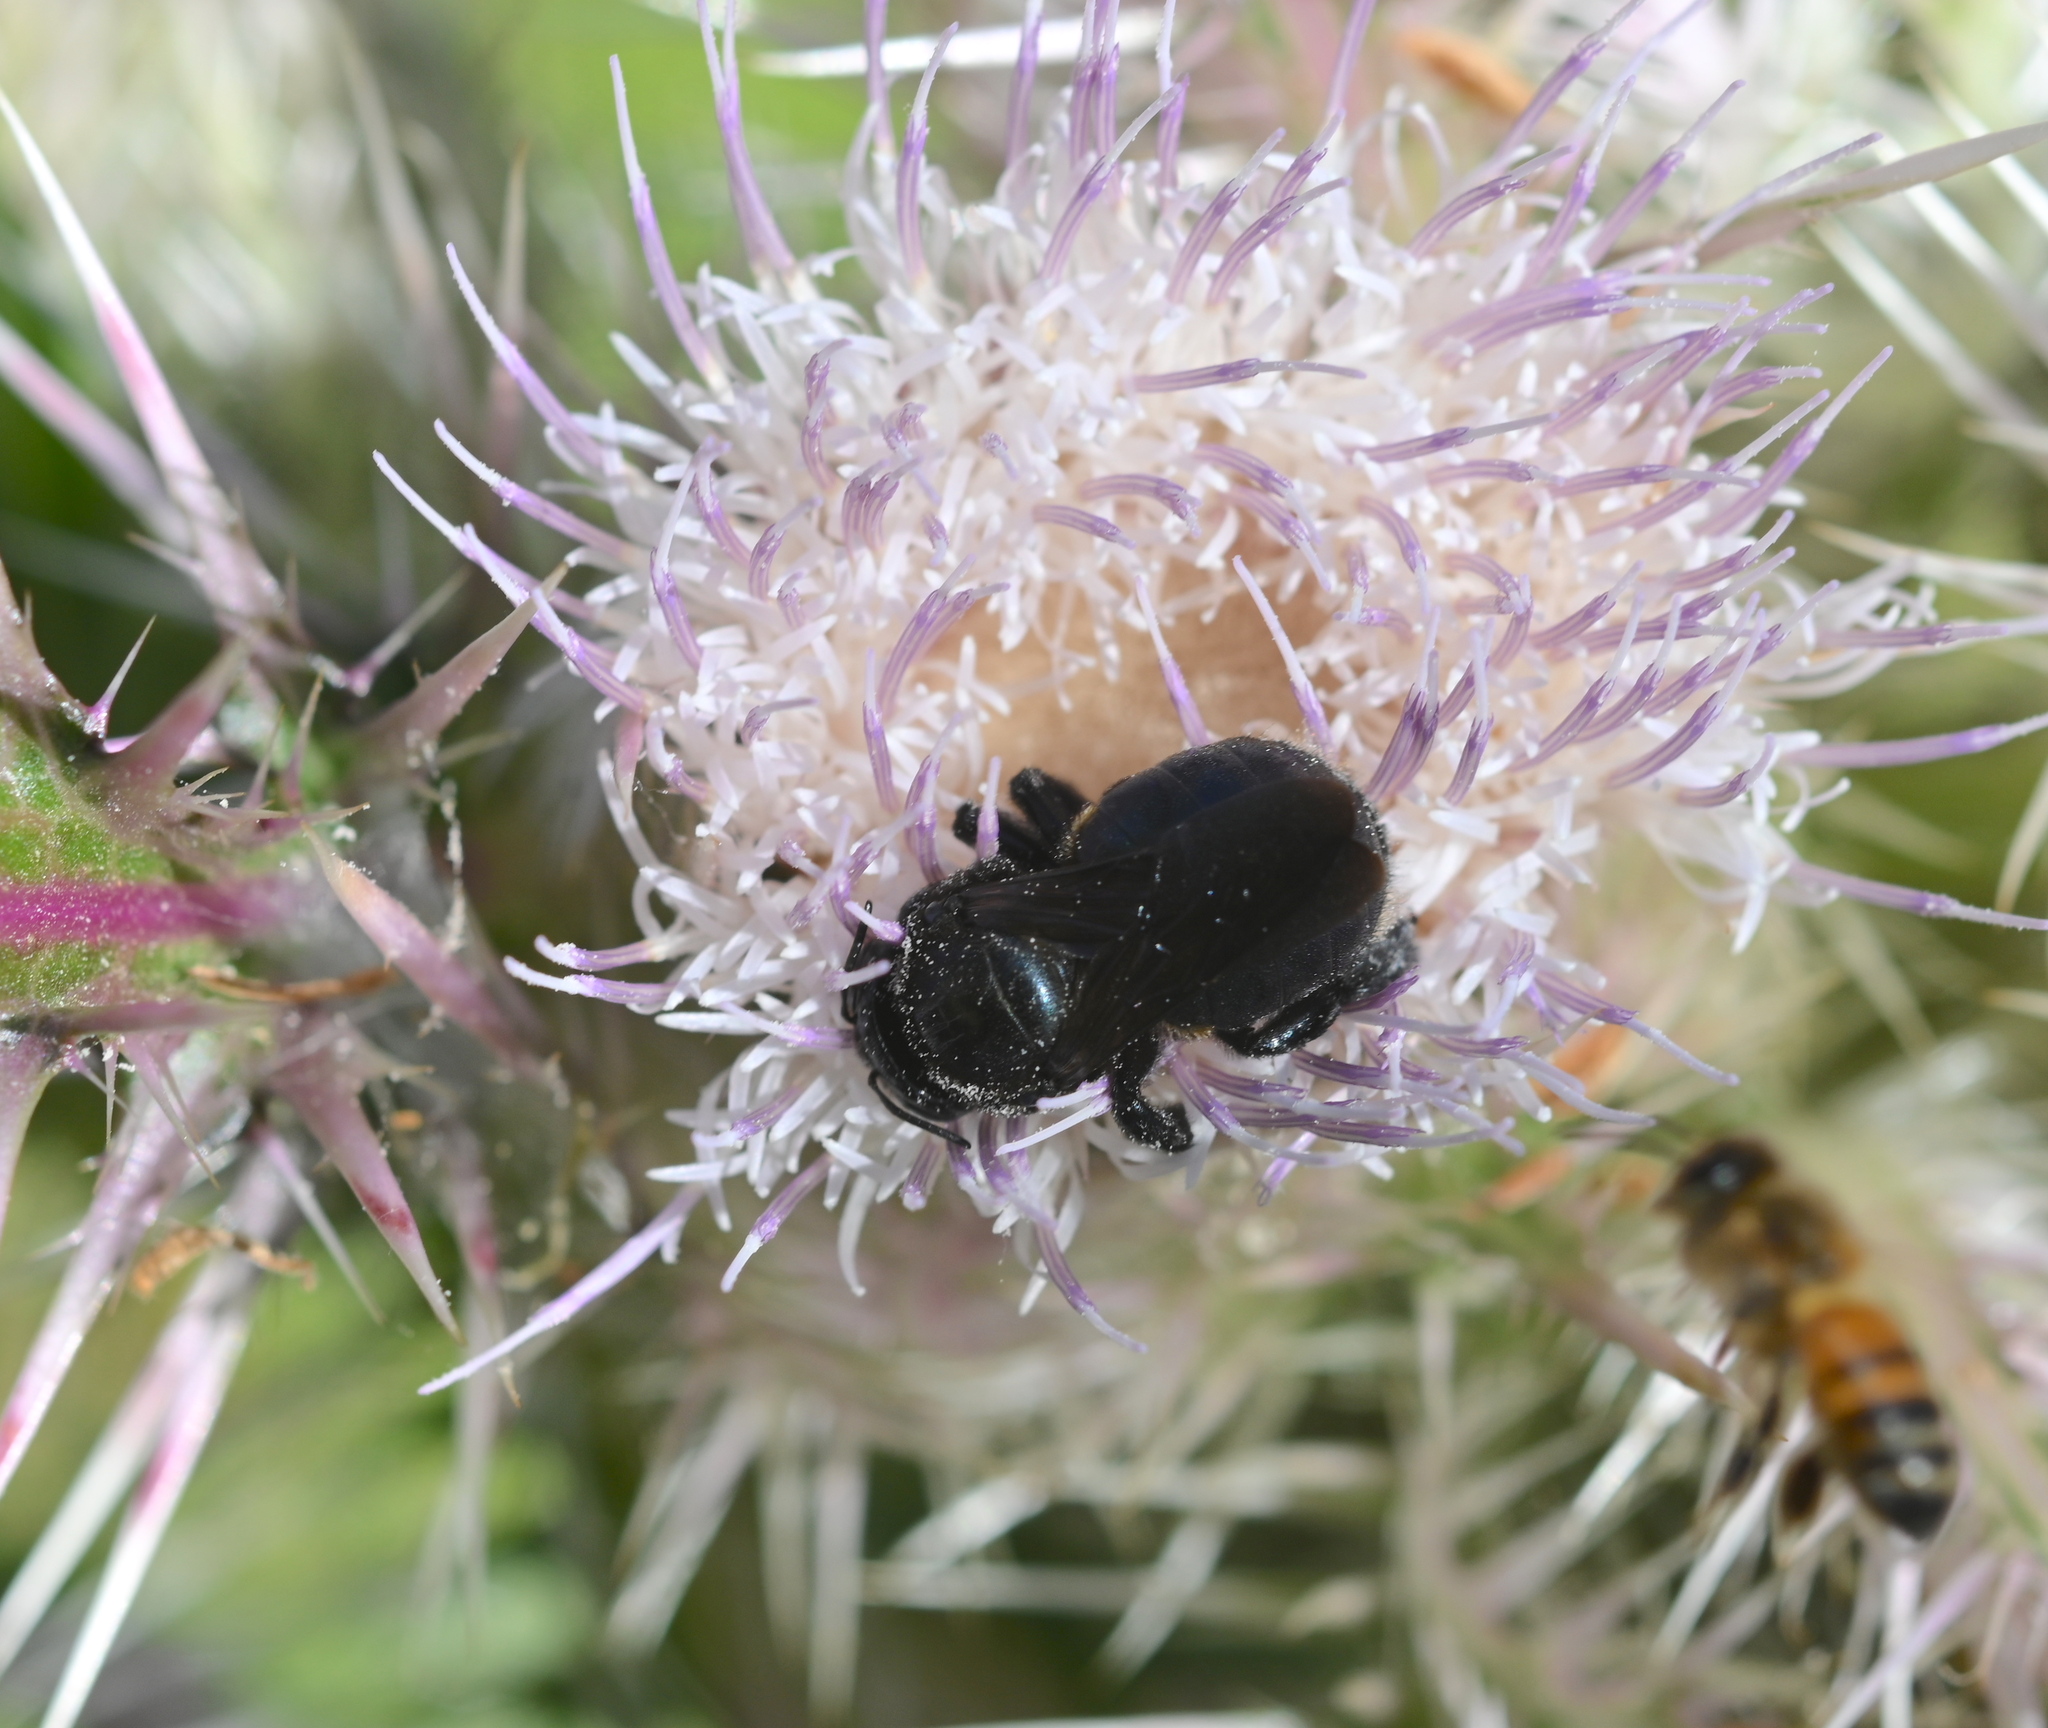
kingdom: Animalia
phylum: Arthropoda
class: Insecta
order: Hymenoptera
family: Apidae
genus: Xylocopa
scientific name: Xylocopa micans
